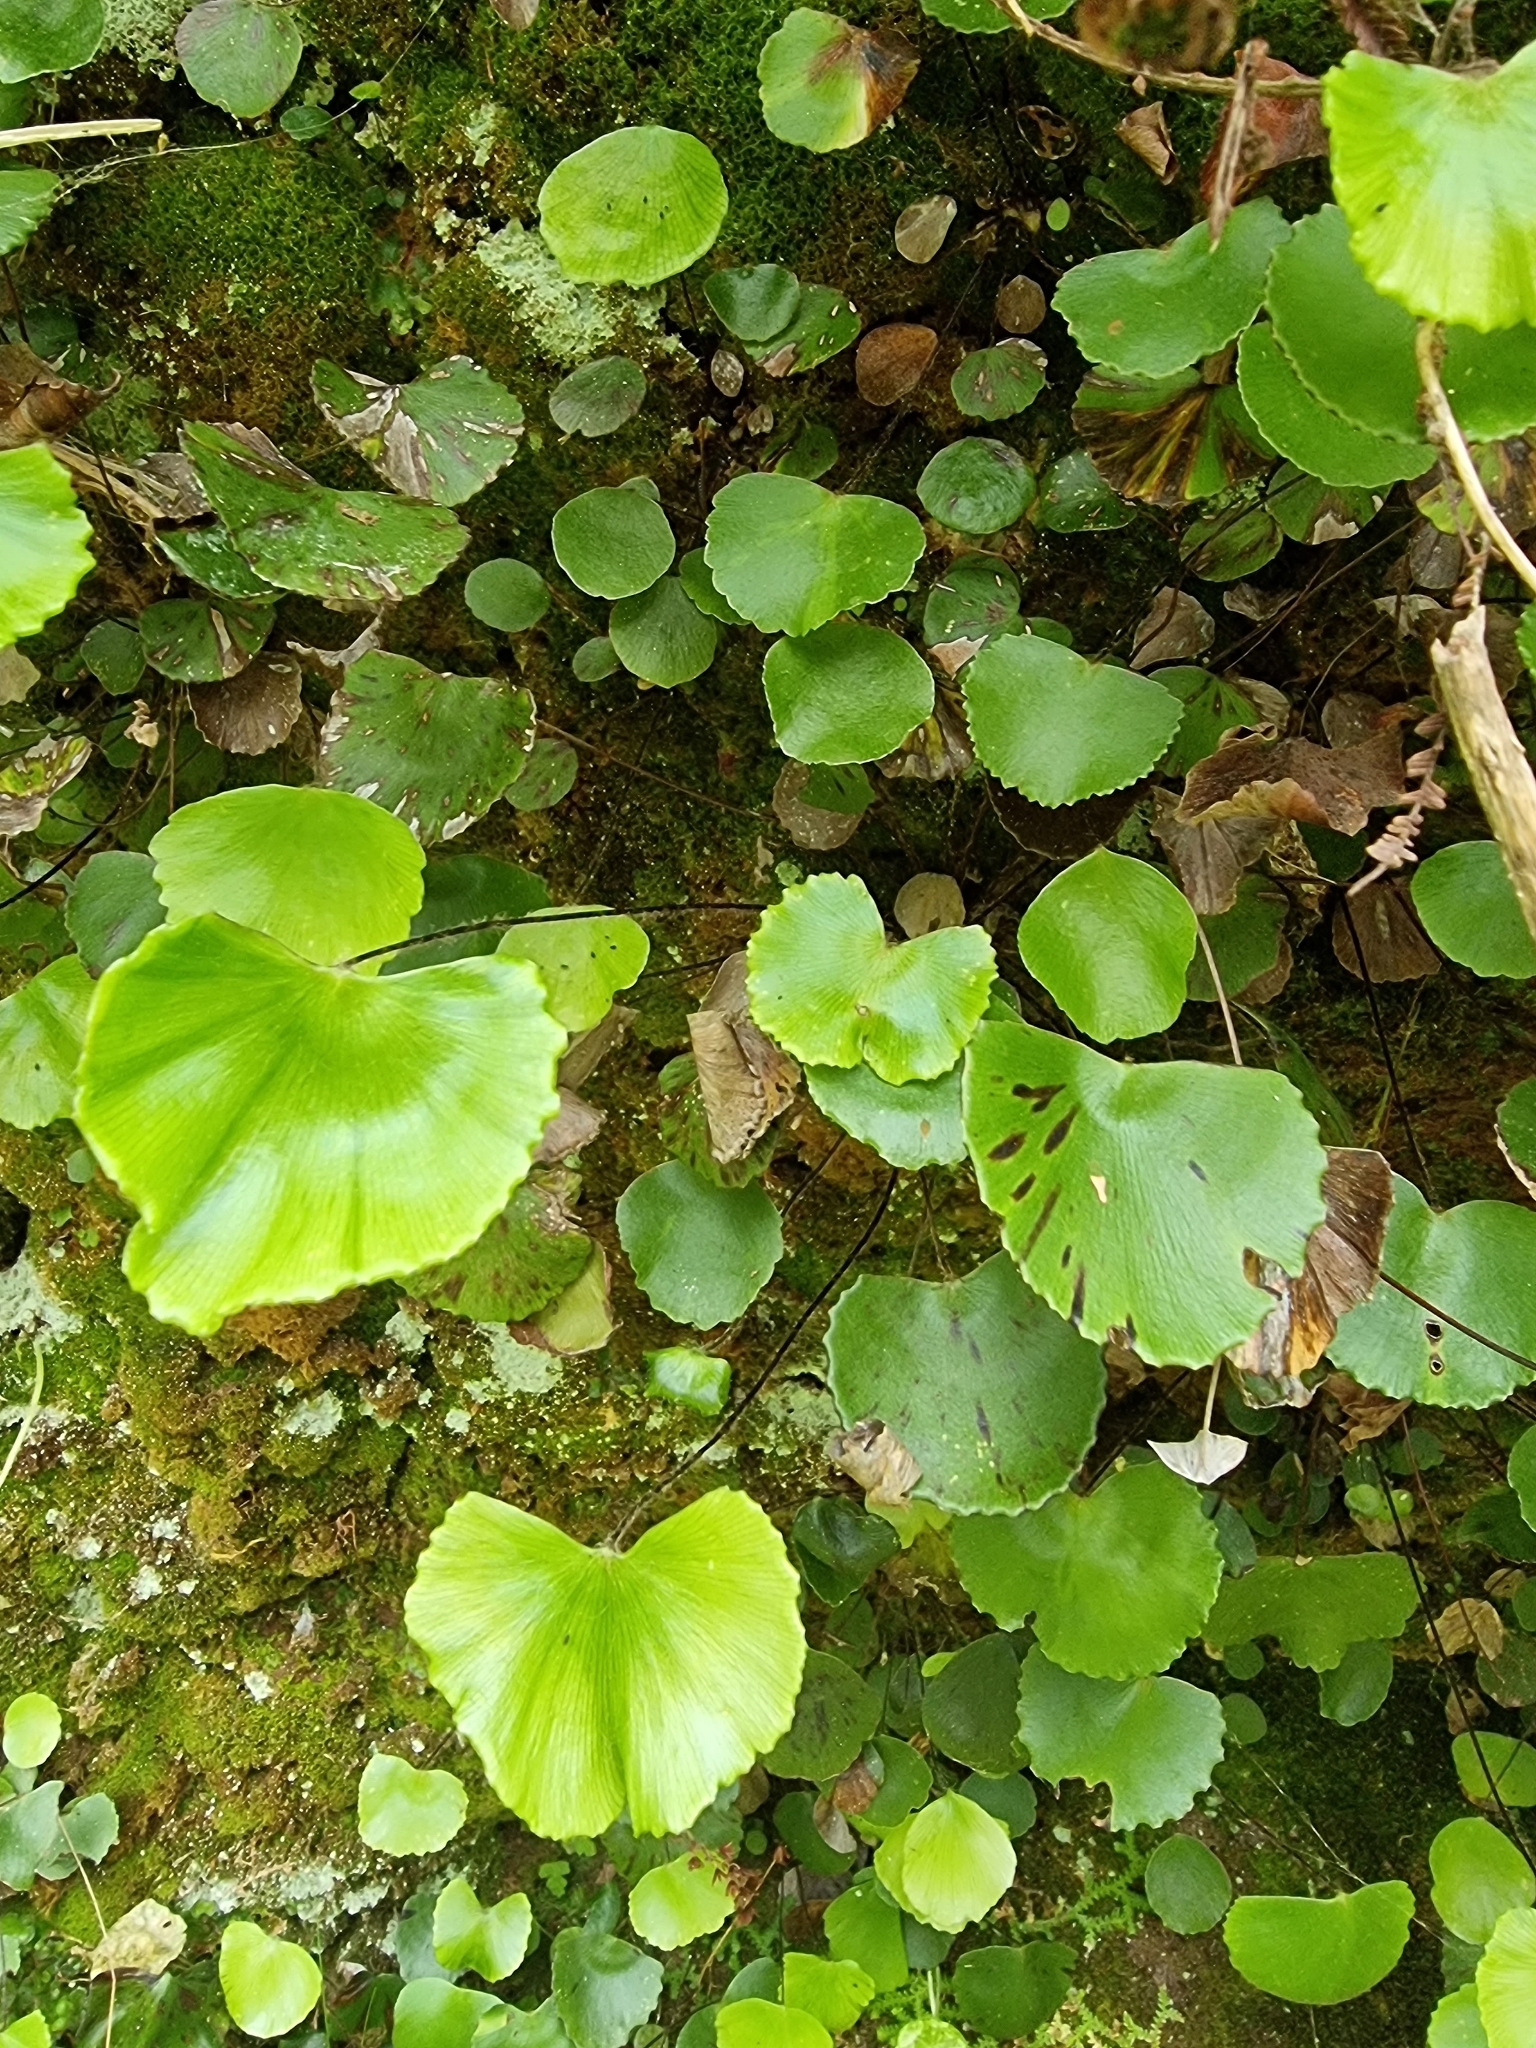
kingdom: Plantae
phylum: Tracheophyta
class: Polypodiopsida
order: Polypodiales
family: Pteridaceae
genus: Adiantum
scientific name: Adiantum reniforme
